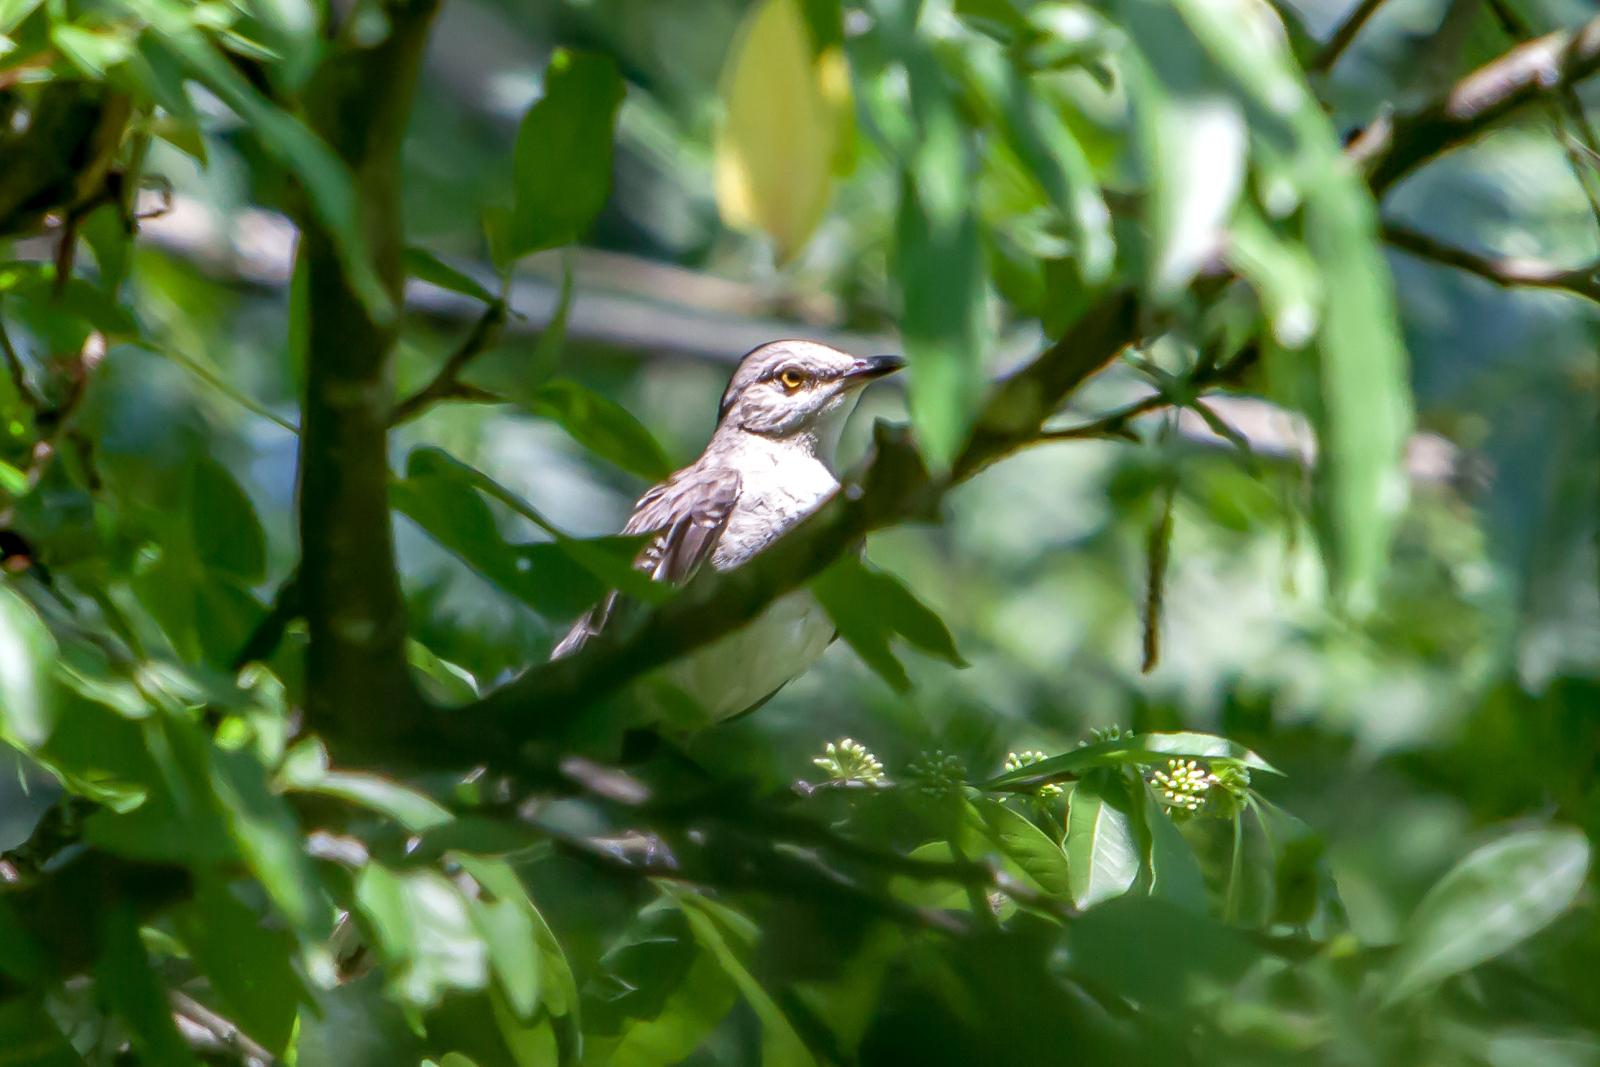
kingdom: Animalia
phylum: Chordata
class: Aves
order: Passeriformes
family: Mimidae
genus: Mimus
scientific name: Mimus polyglottos
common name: Northern mockingbird
